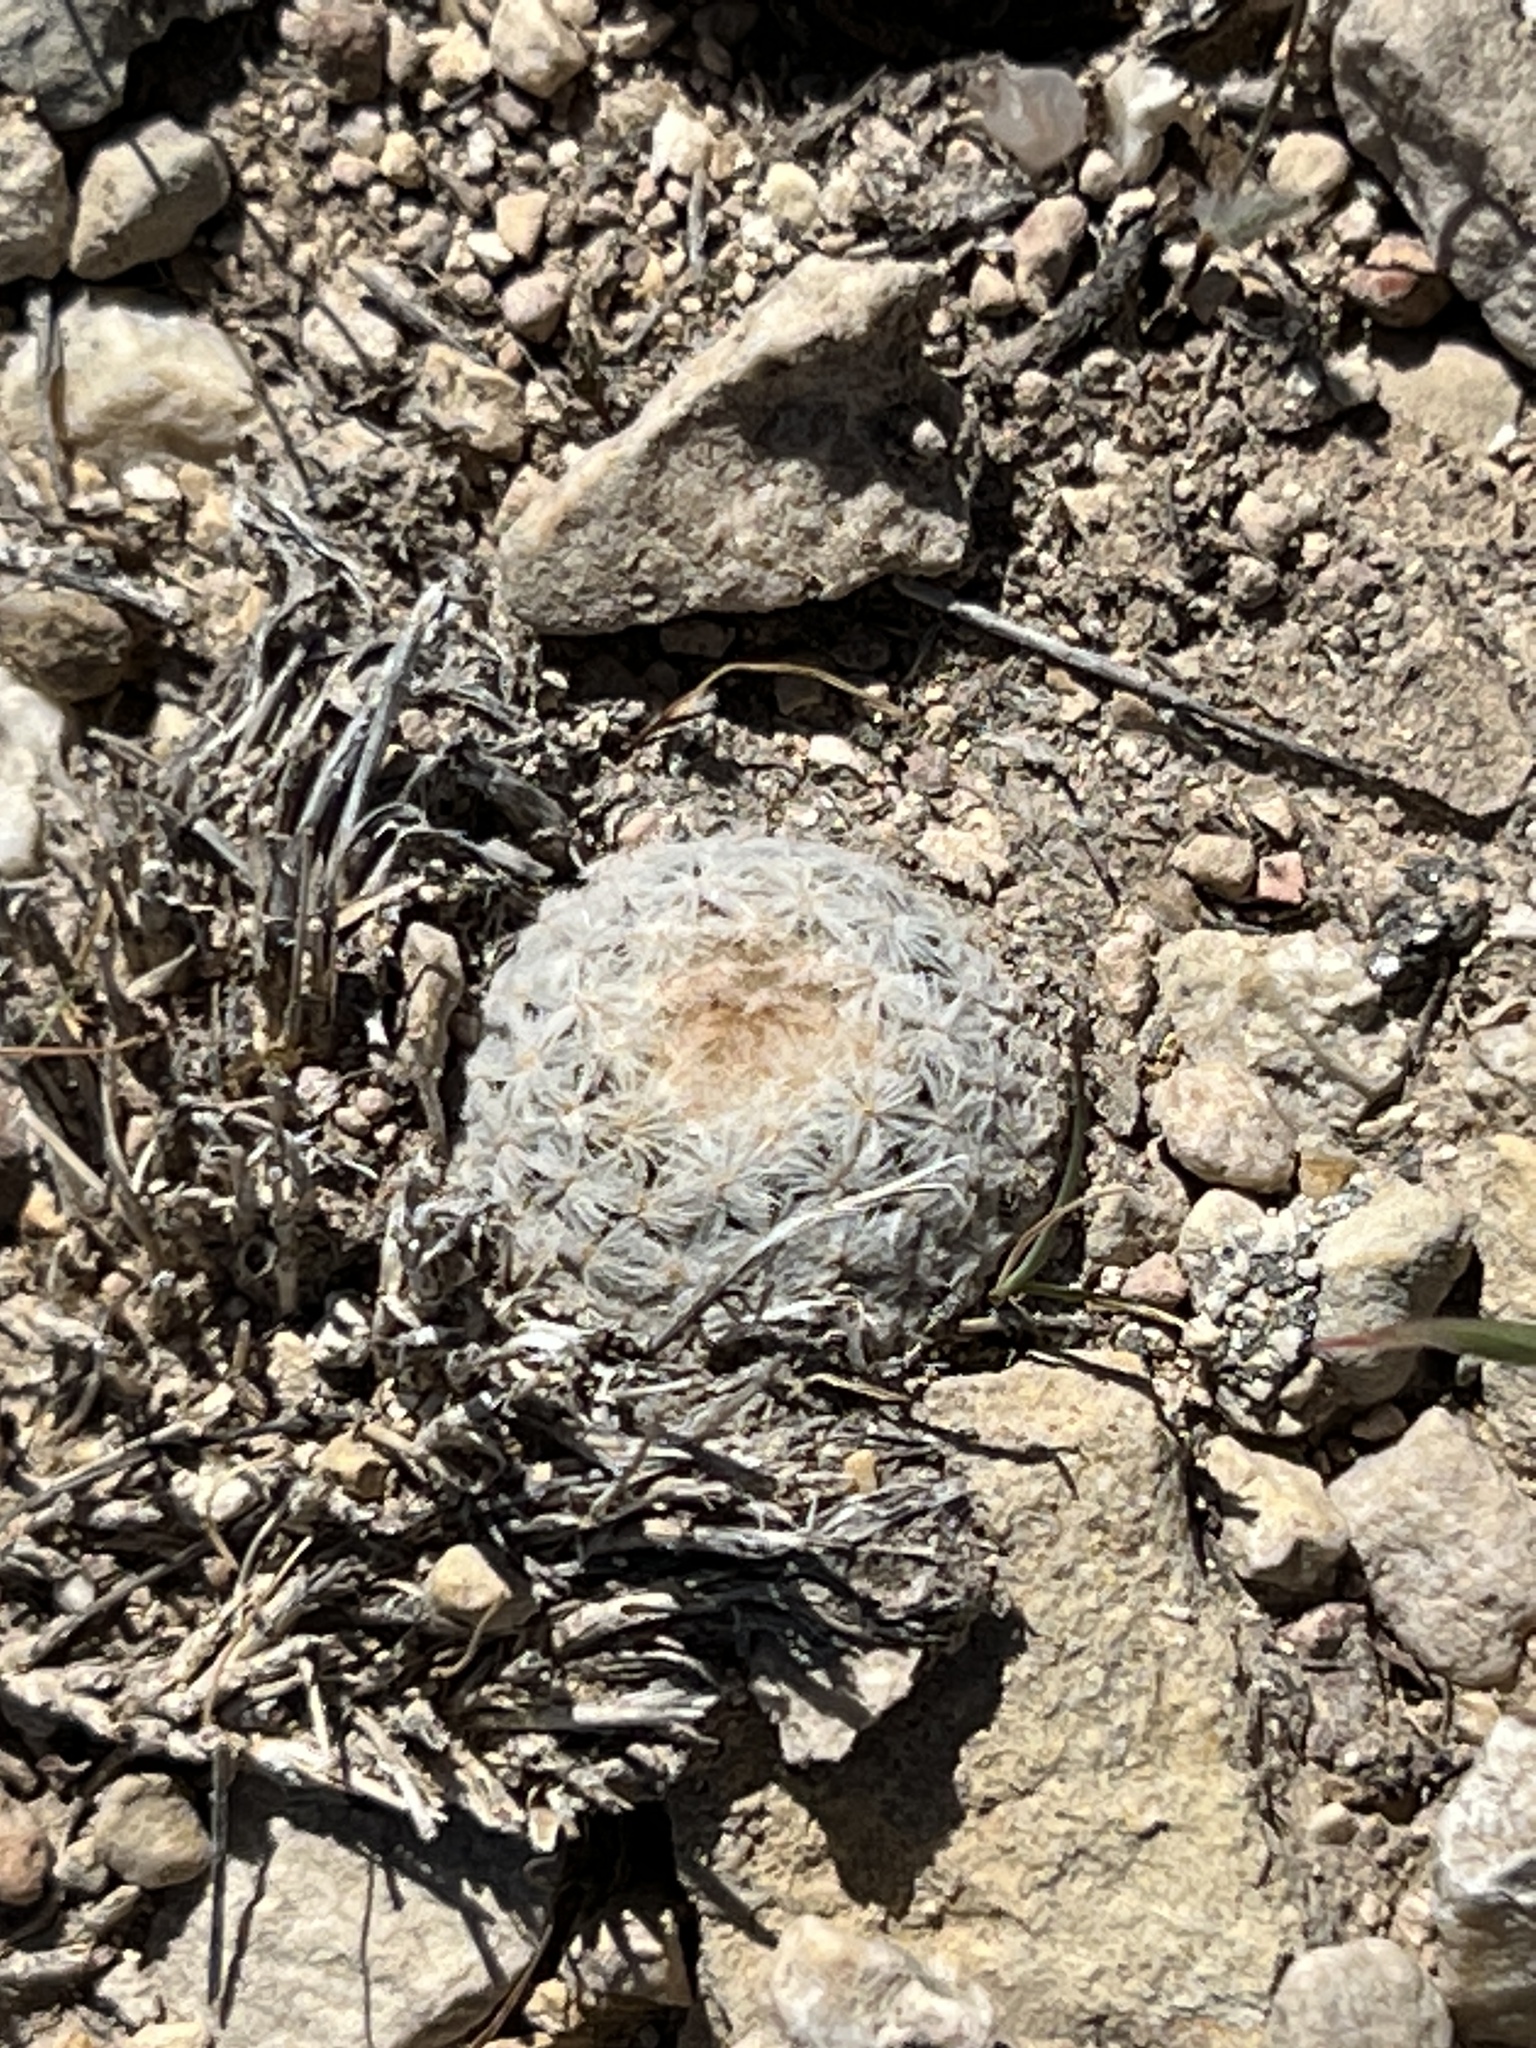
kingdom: Plantae
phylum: Tracheophyta
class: Magnoliopsida
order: Caryophyllales
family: Cactaceae
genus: Mammillaria
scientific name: Mammillaria lasiacantha
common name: Lace-spine nipple cactus
